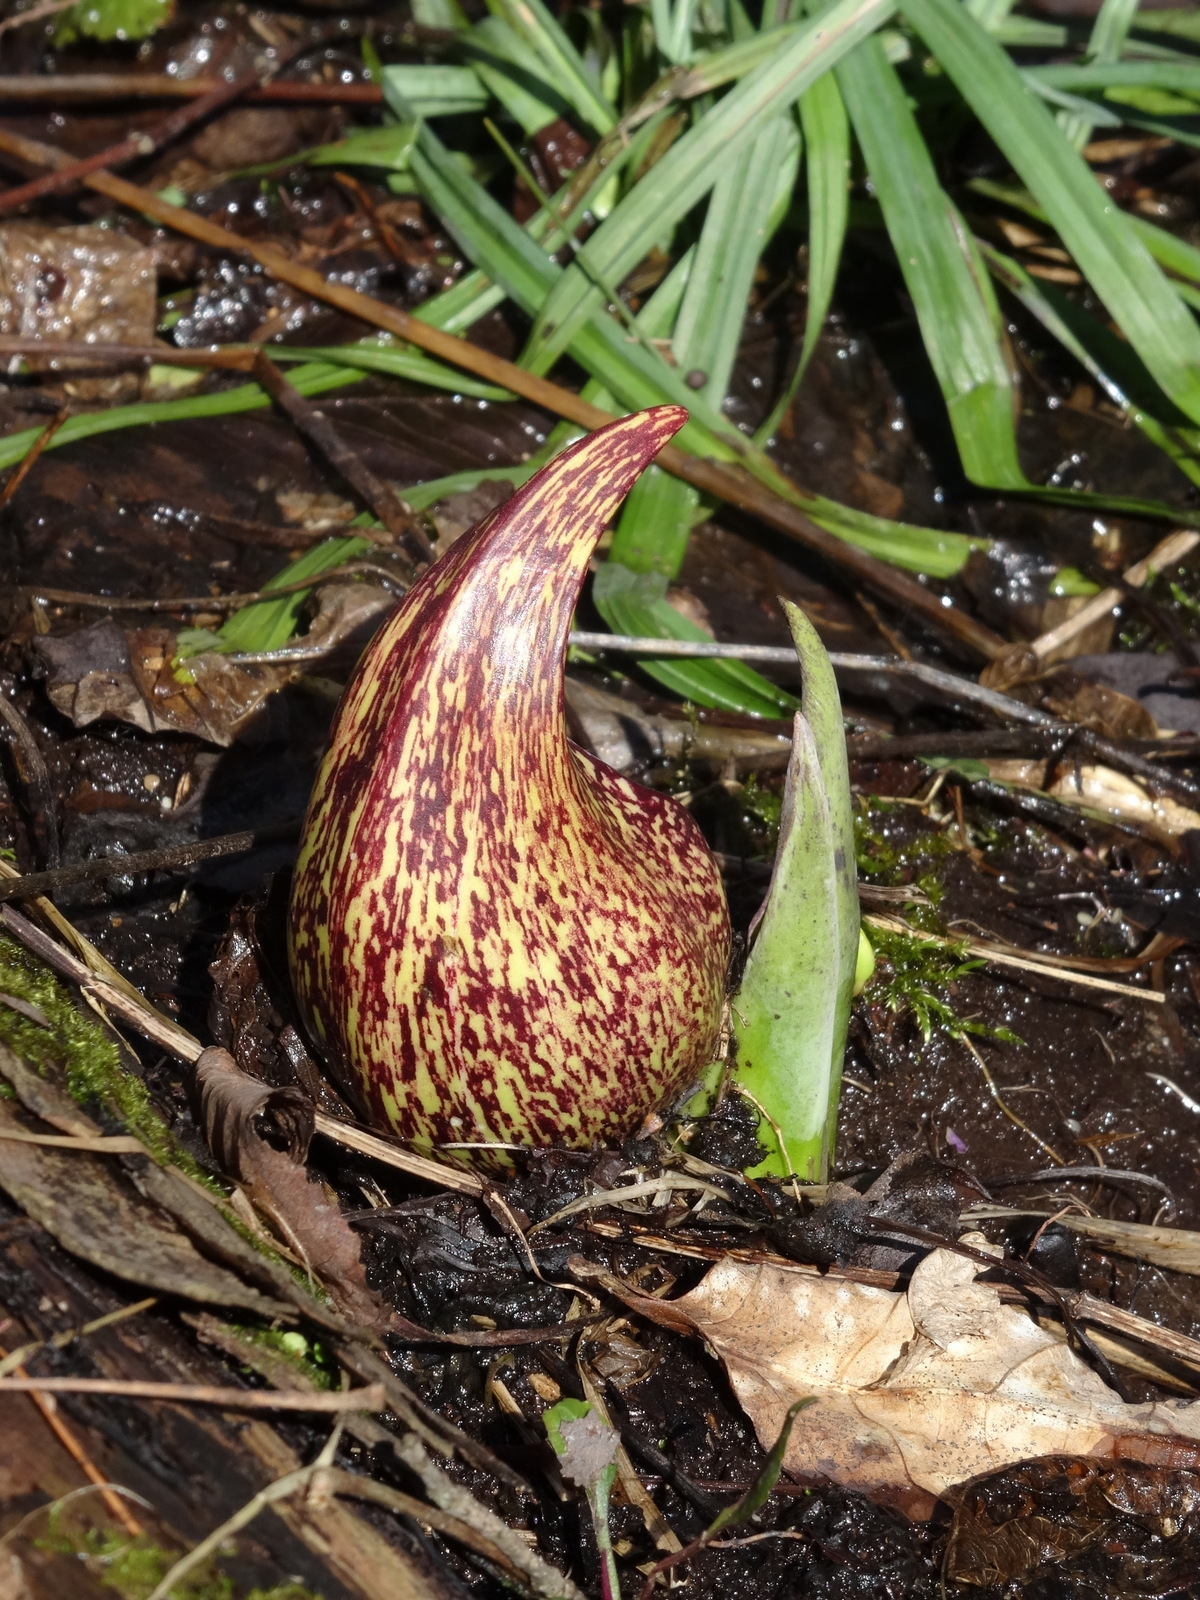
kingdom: Plantae
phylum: Tracheophyta
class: Liliopsida
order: Alismatales
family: Araceae
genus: Symplocarpus
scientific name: Symplocarpus foetidus
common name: Eastern skunk cabbage
